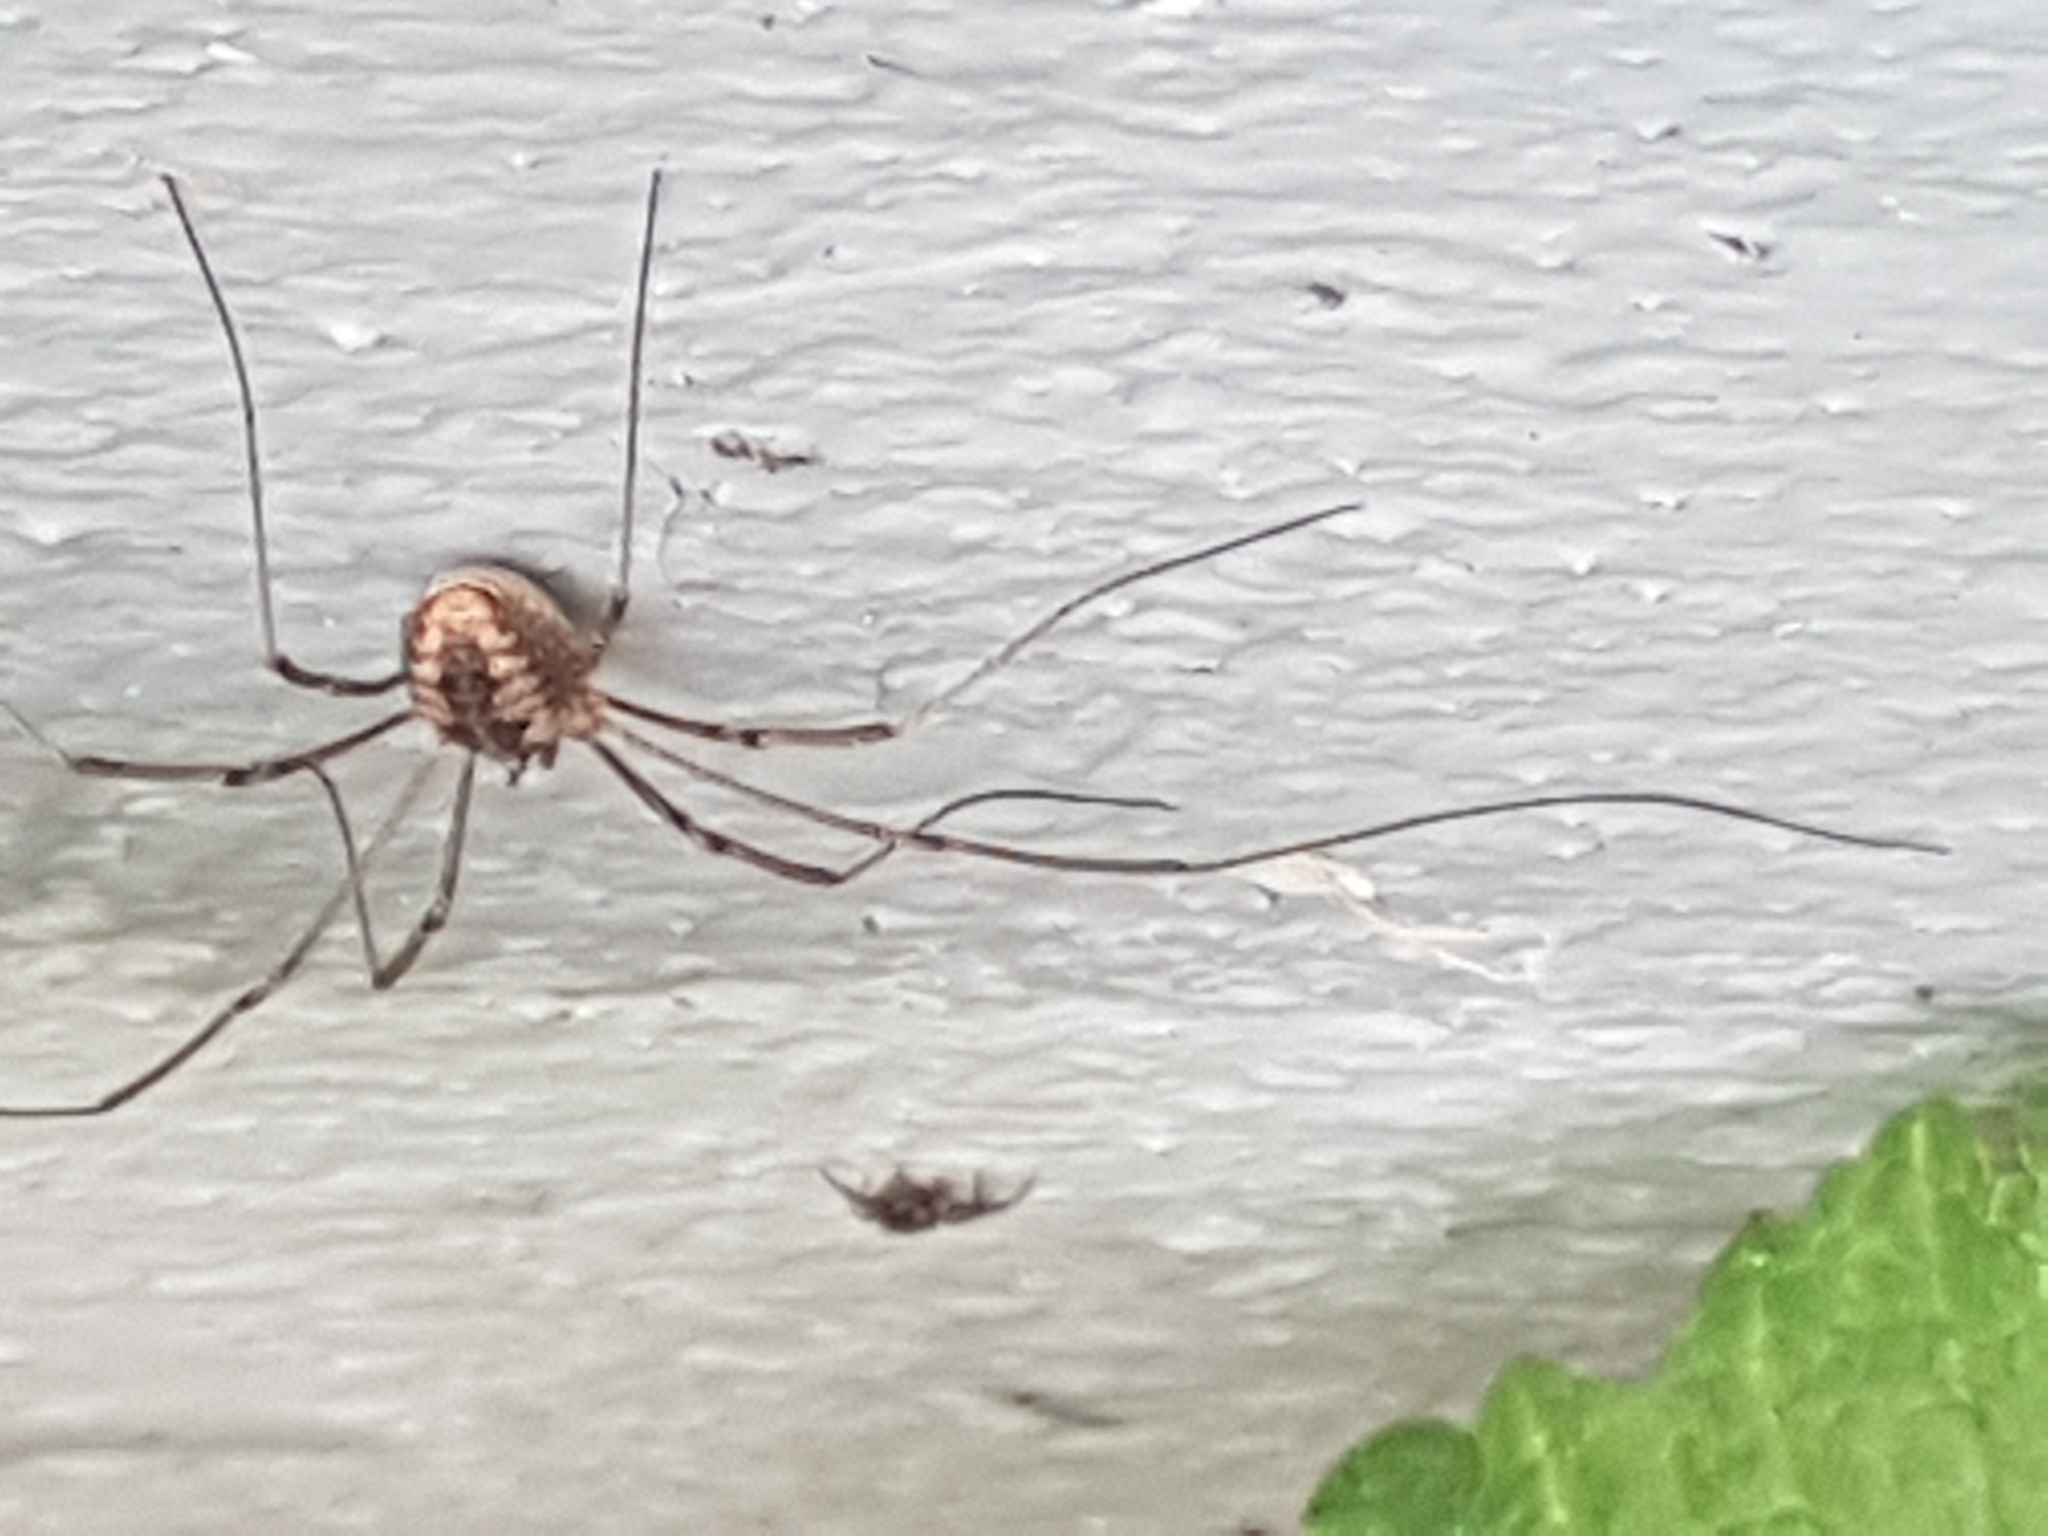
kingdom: Animalia
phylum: Arthropoda
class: Arachnida
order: Opiliones
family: Phalangiidae
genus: Phalangium
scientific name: Phalangium opilio
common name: Daddy longleg
